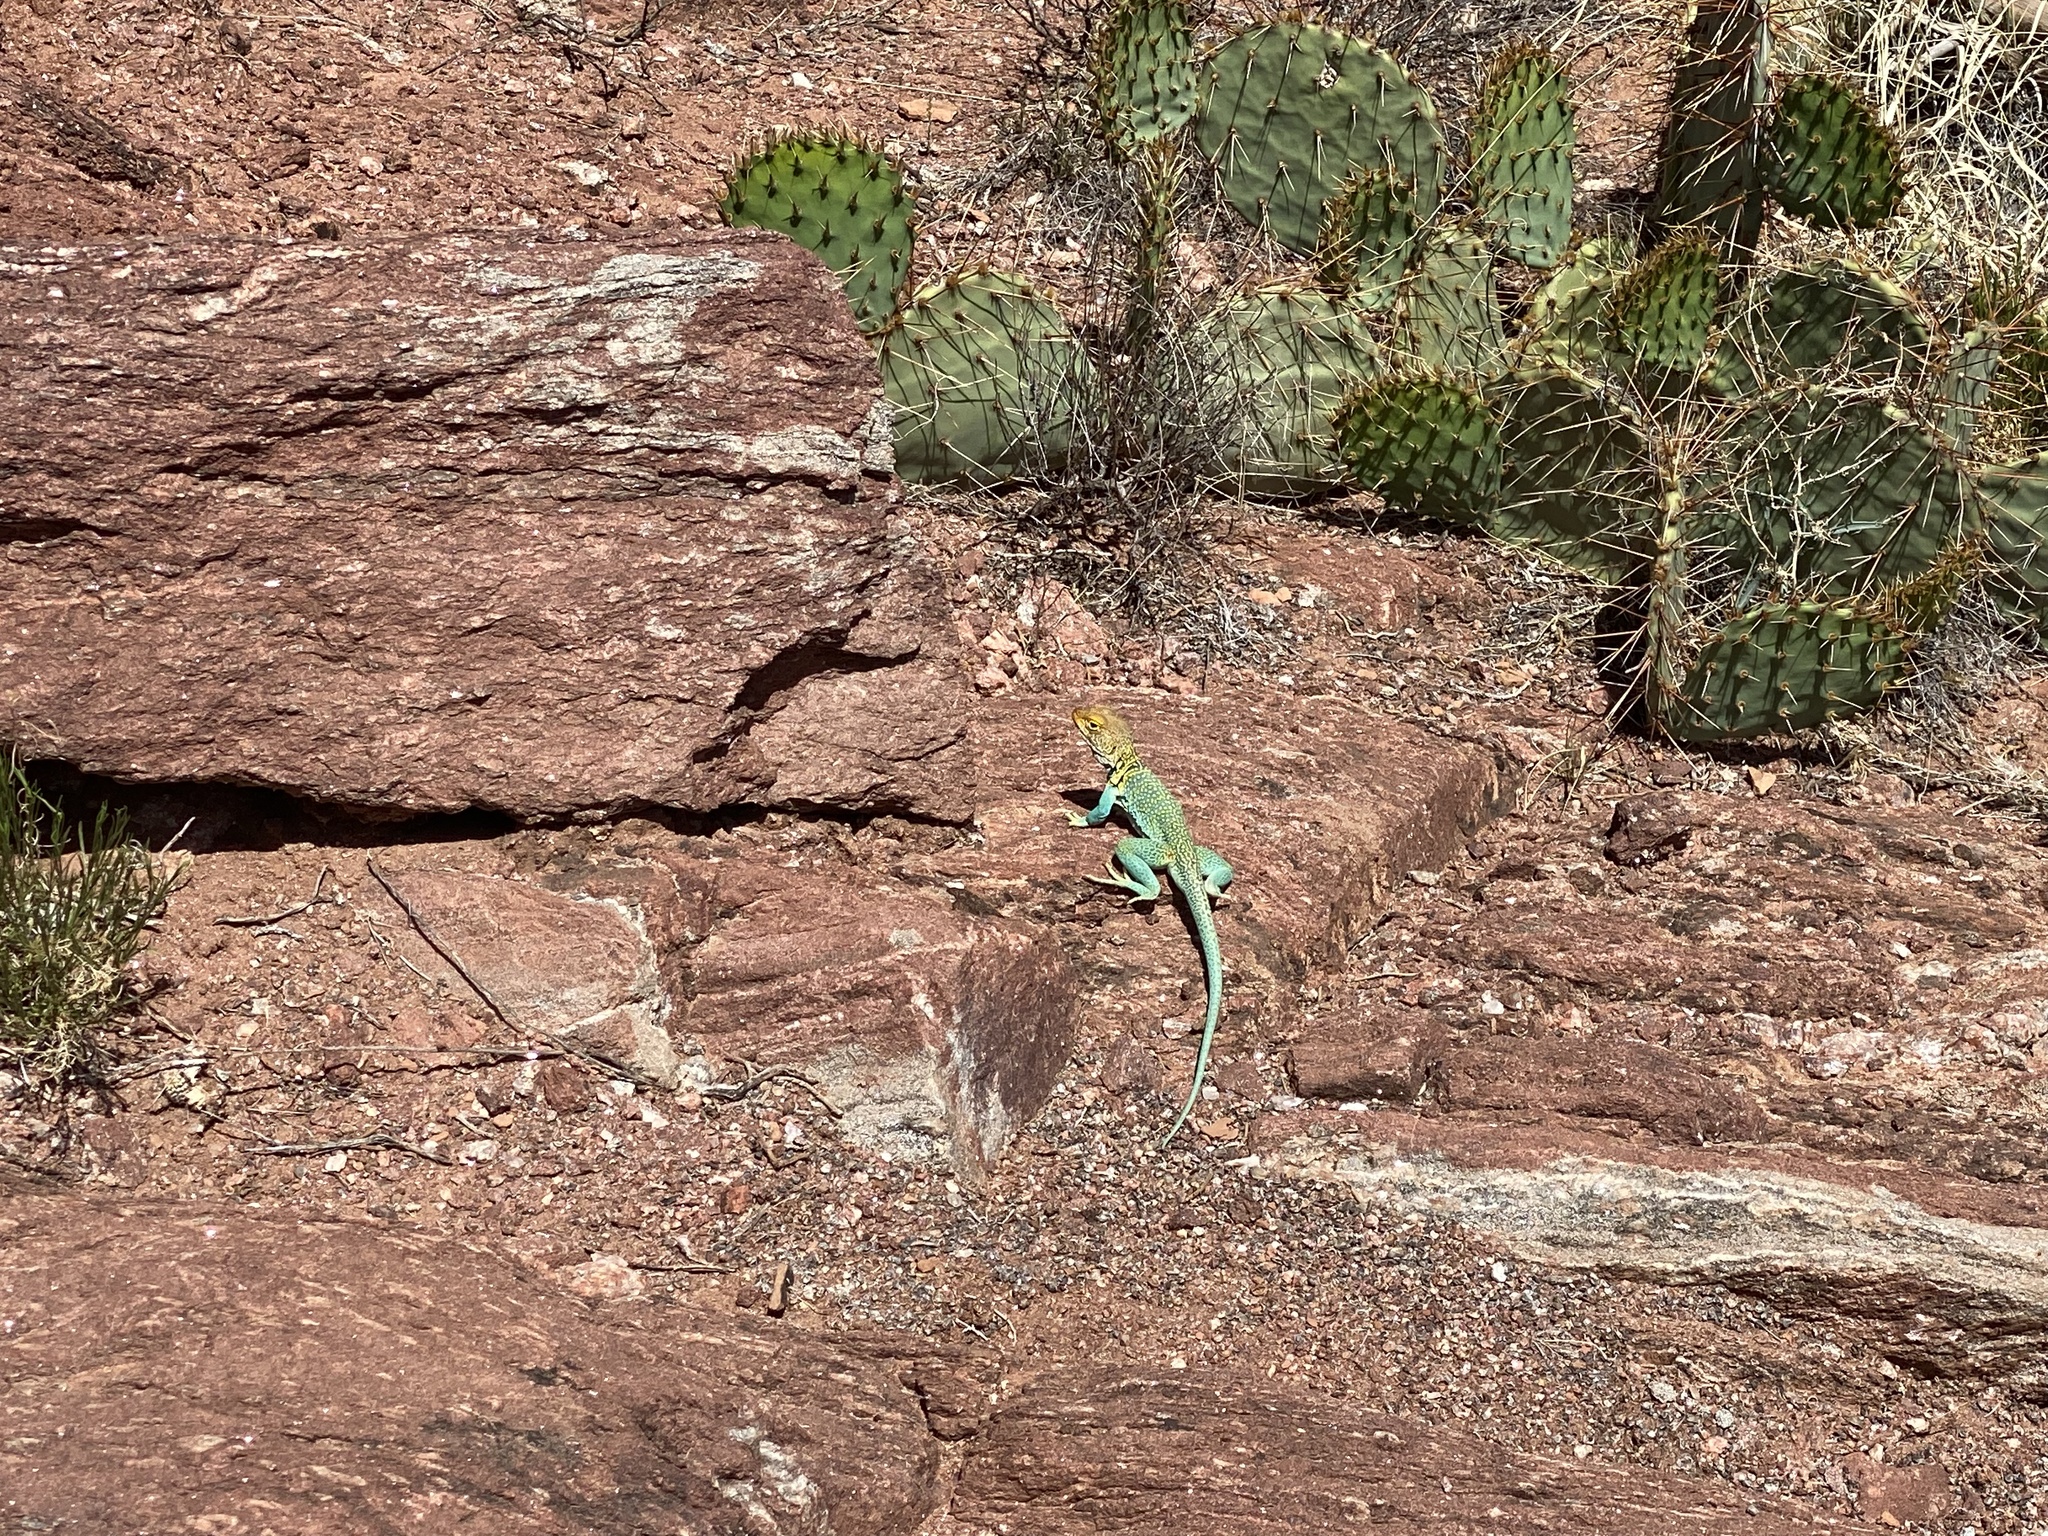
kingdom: Animalia
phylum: Chordata
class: Squamata
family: Crotaphytidae
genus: Crotaphytus
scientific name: Crotaphytus collaris
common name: Collared lizard
